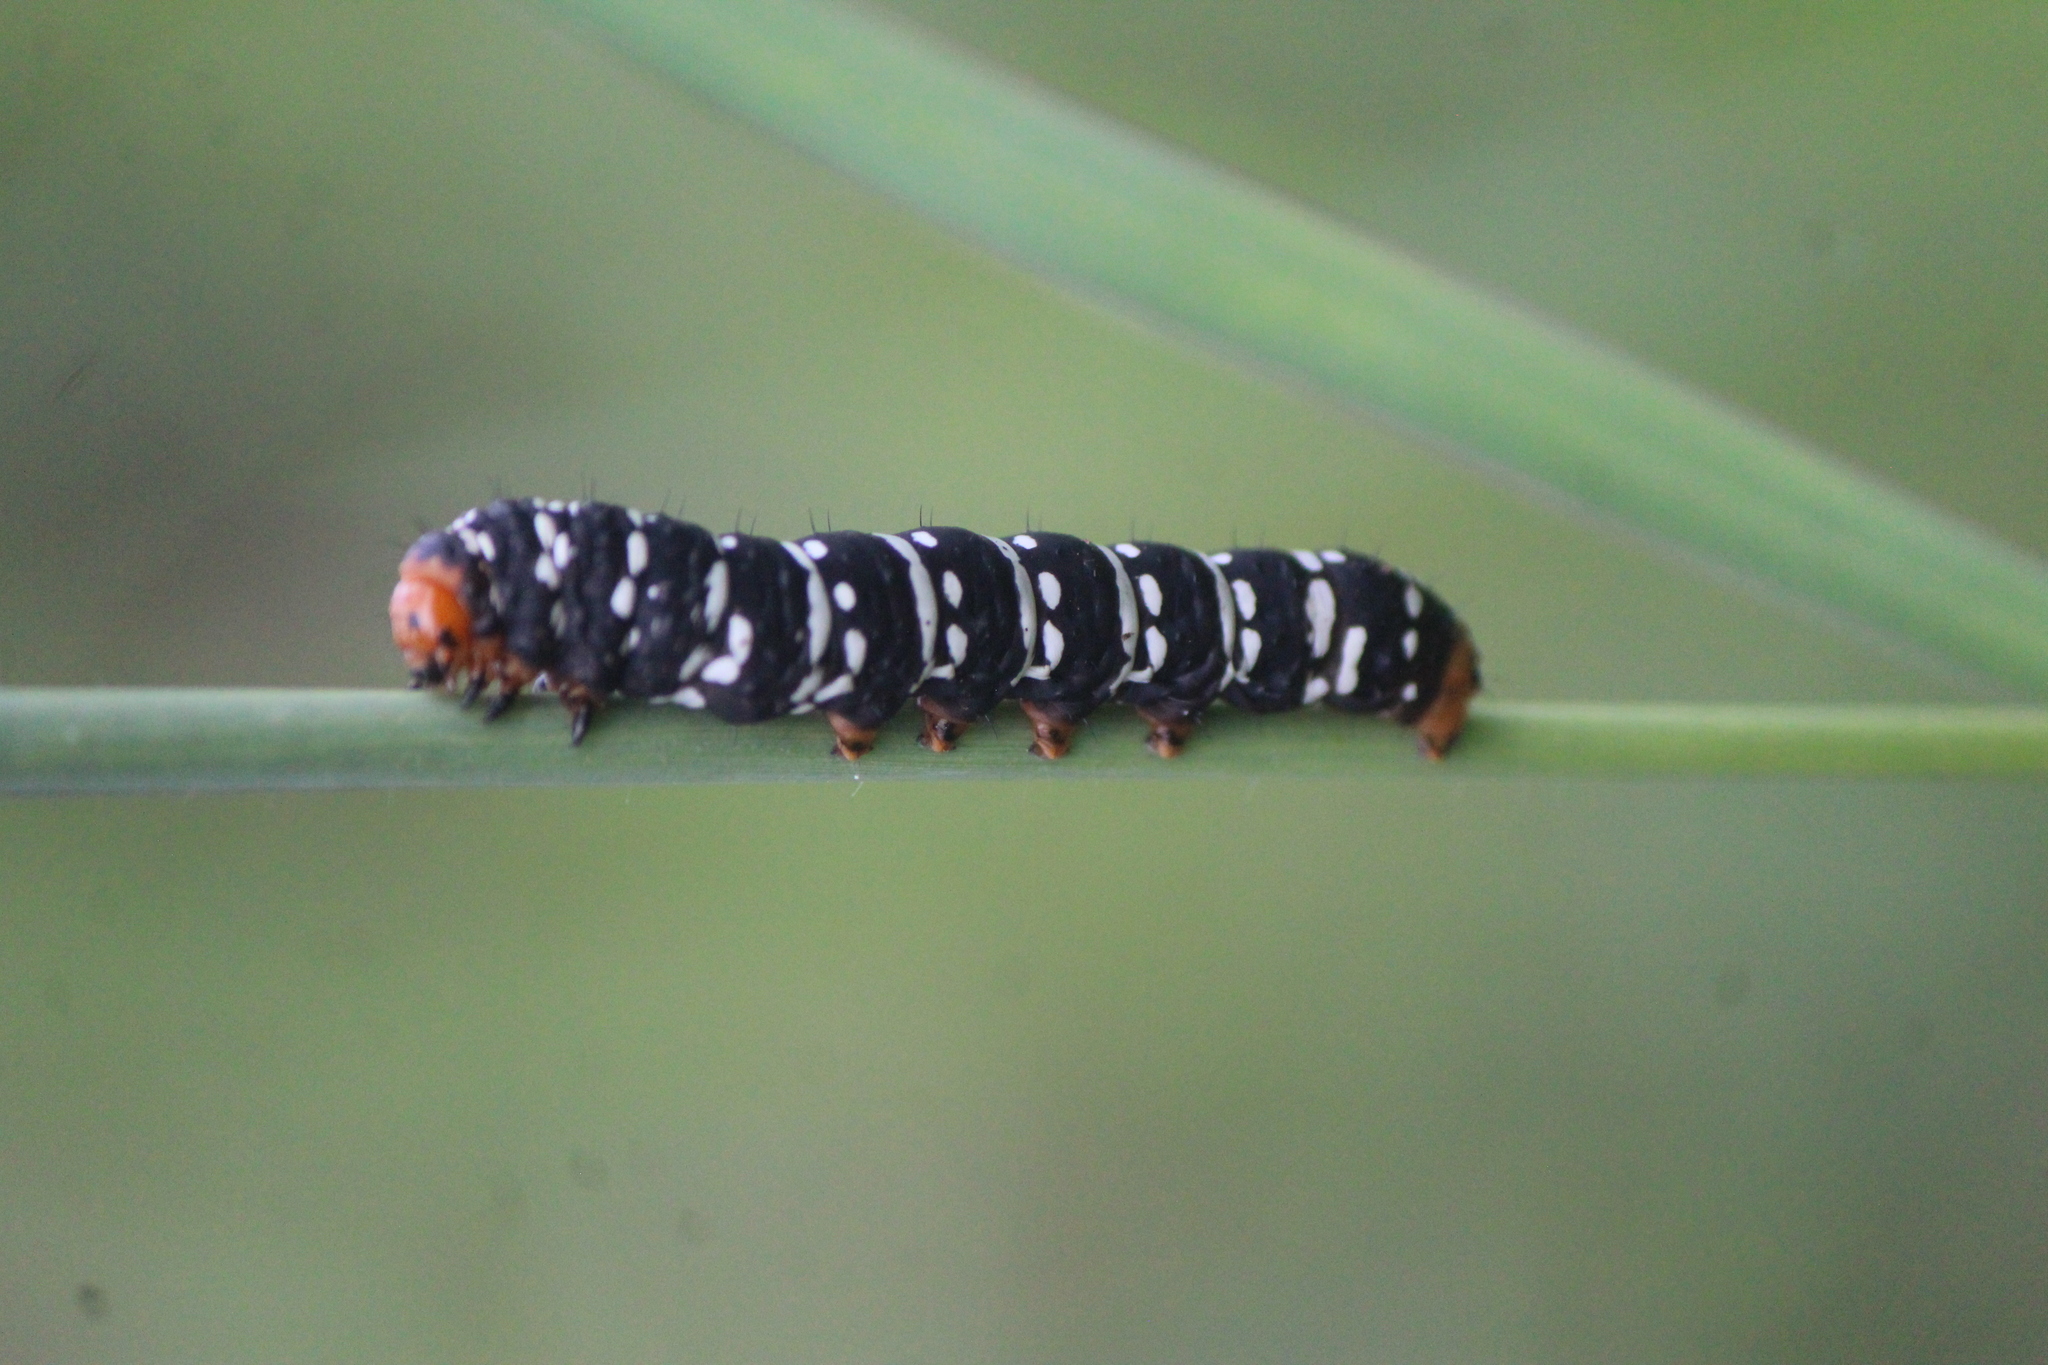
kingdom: Animalia
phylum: Arthropoda
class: Insecta
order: Lepidoptera
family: Noctuidae
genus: Xanthopastis
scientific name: Xanthopastis moctezuma
